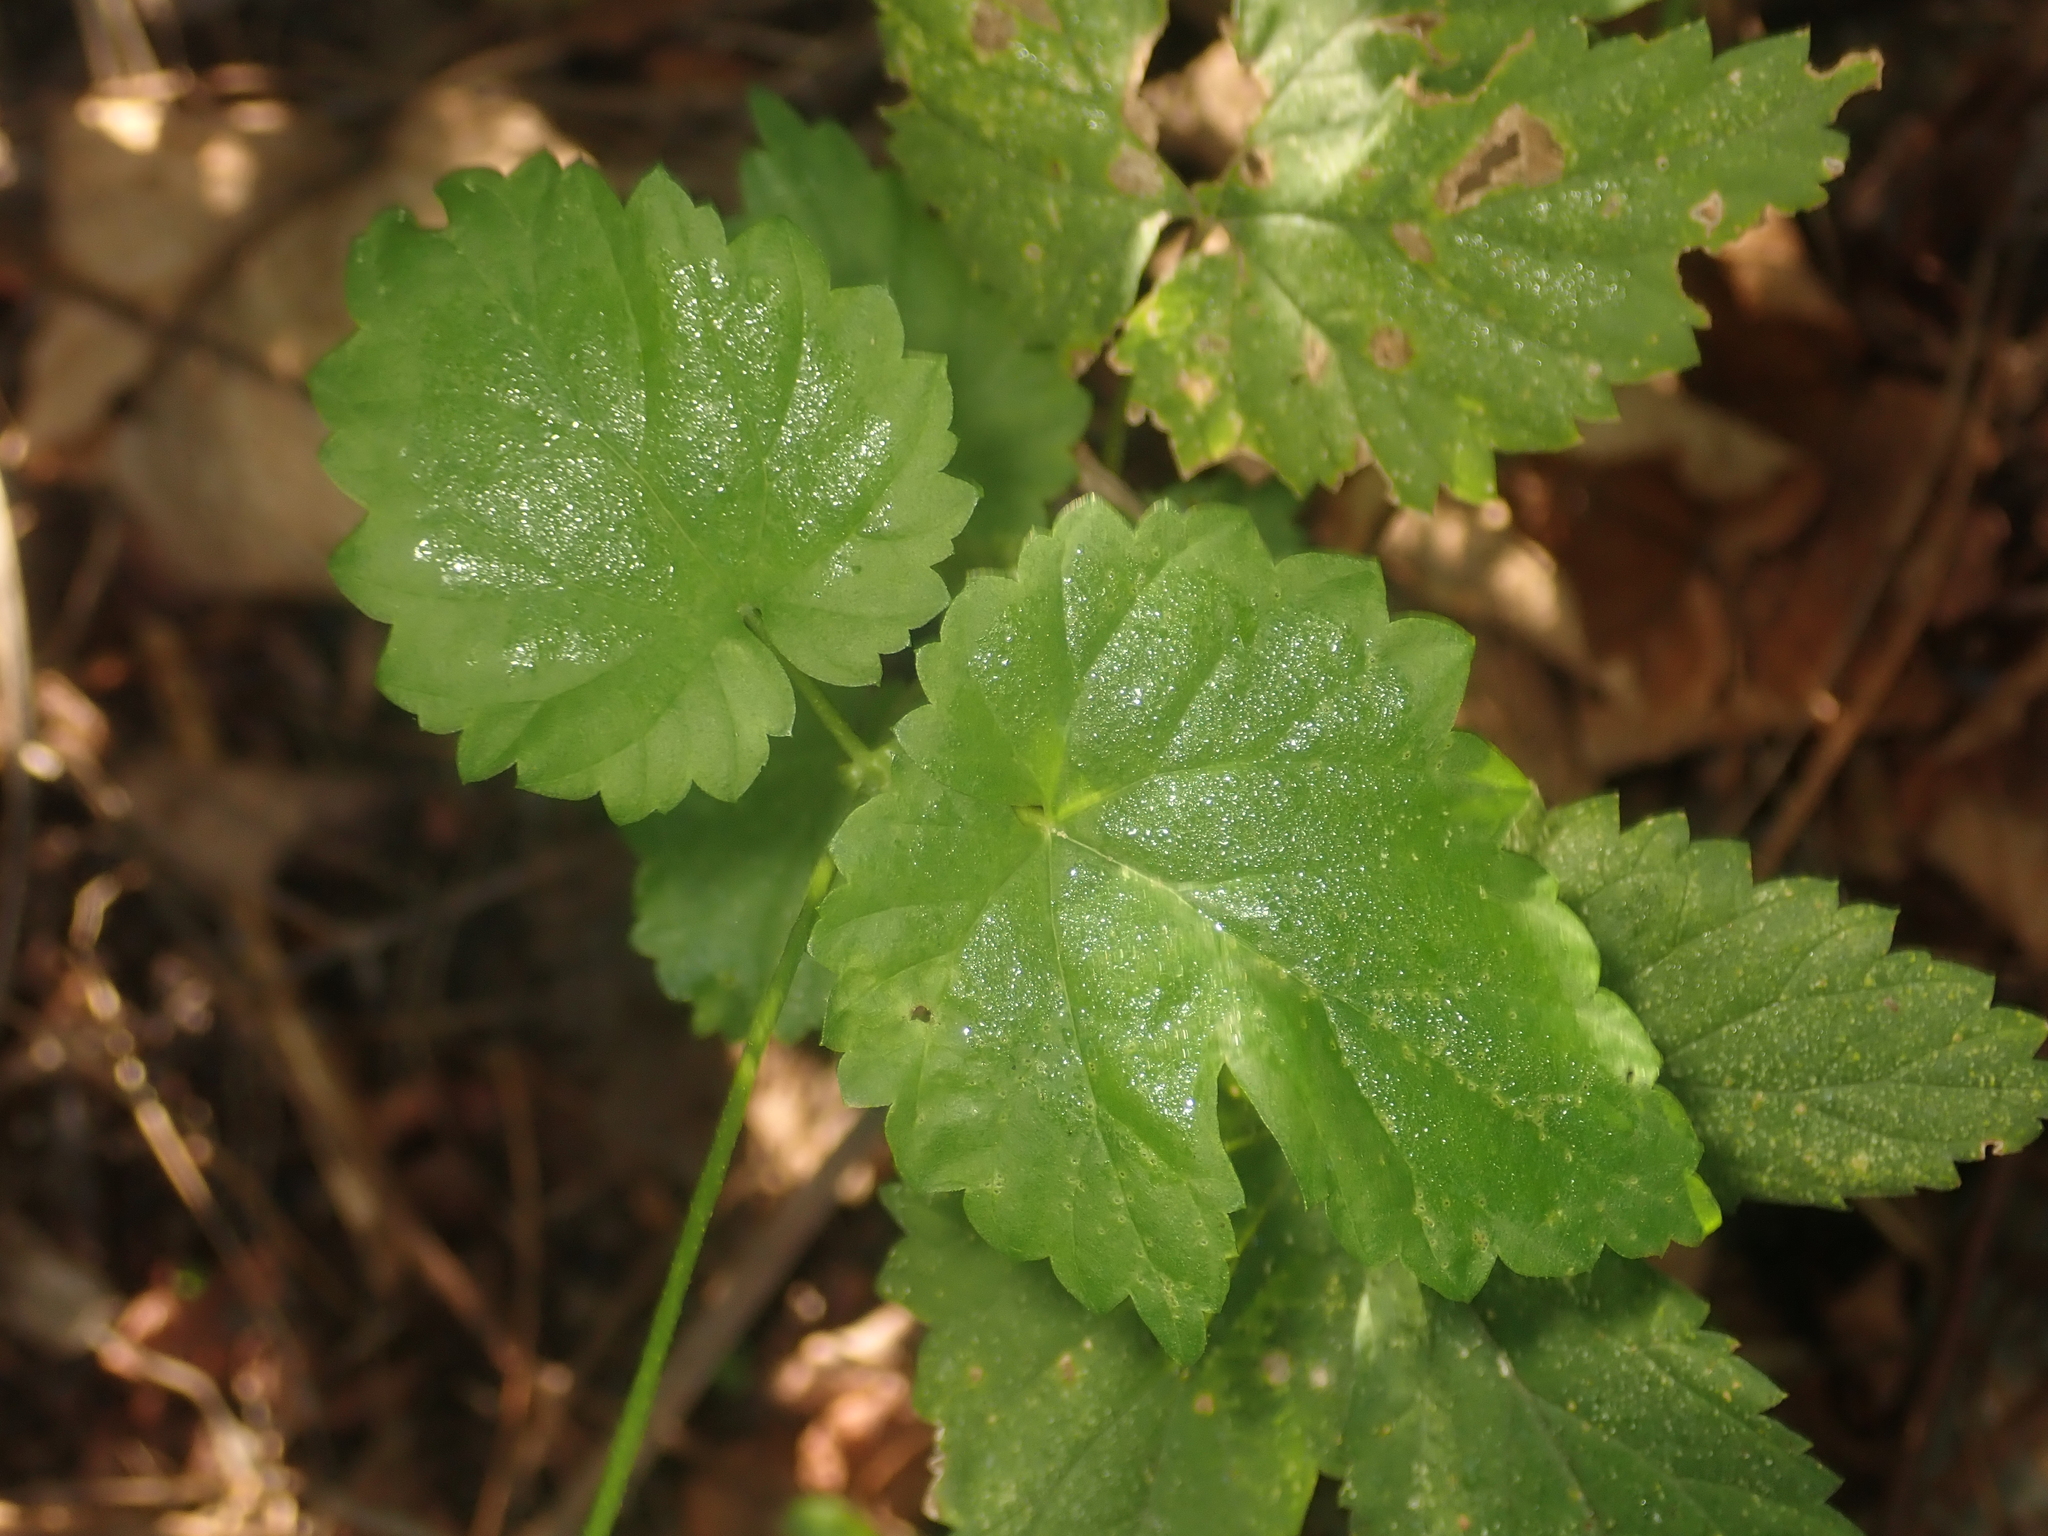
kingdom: Plantae
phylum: Tracheophyta
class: Magnoliopsida
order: Rosales
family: Cannabaceae
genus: Humulus
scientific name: Humulus lupulus
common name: Hop
